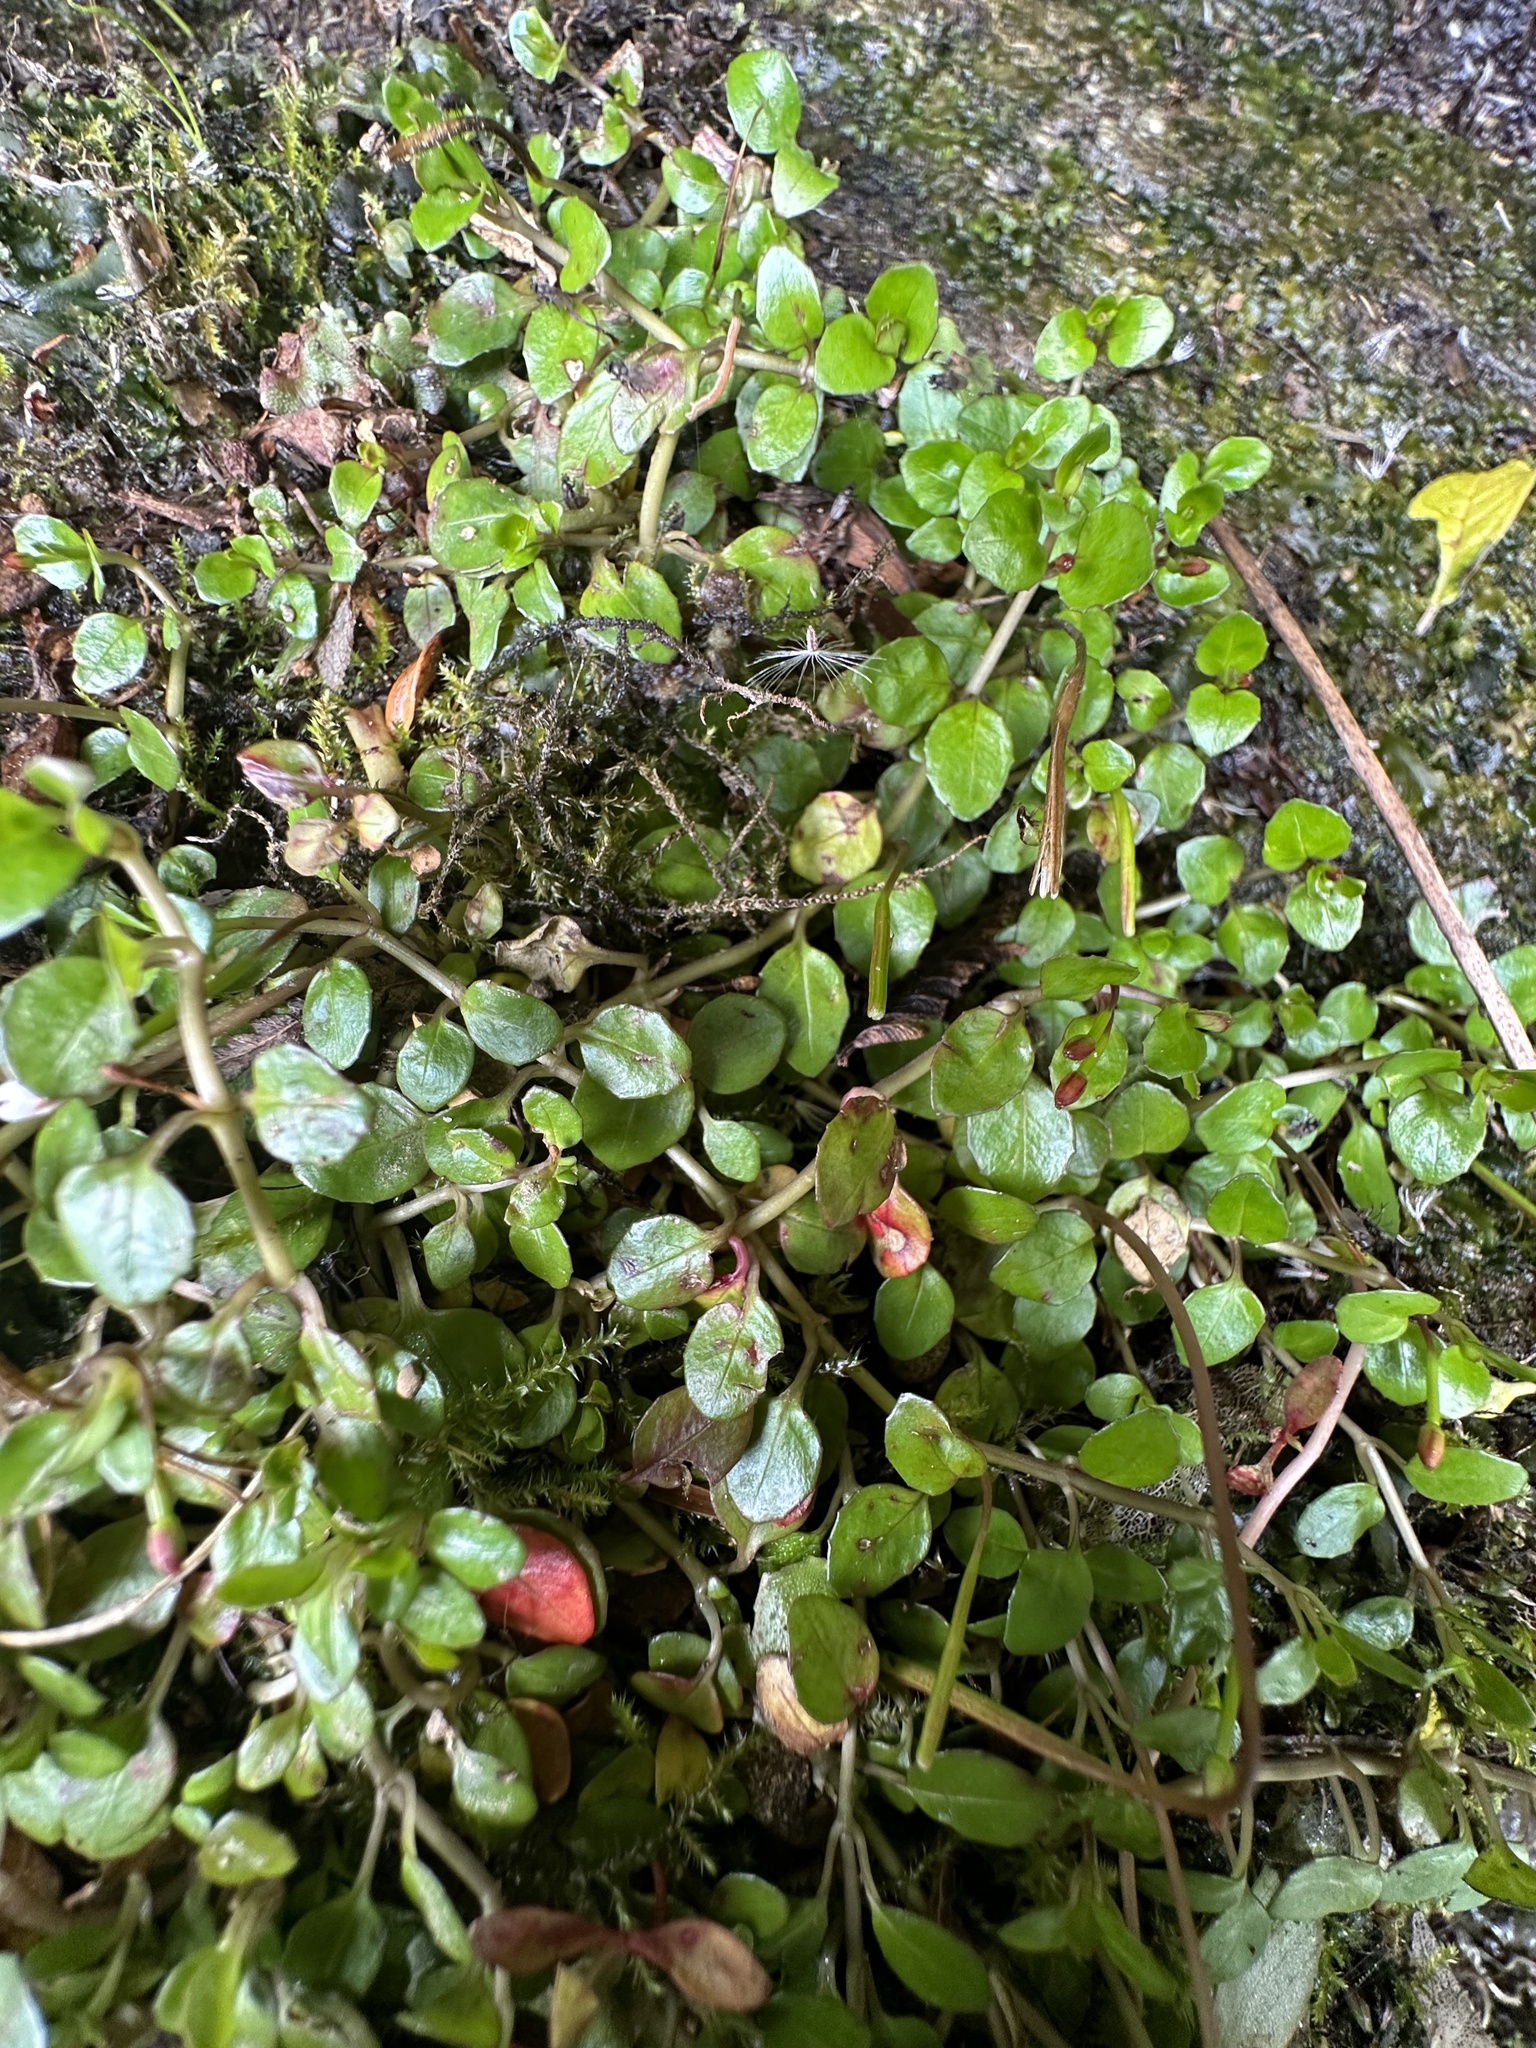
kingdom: Plantae
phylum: Tracheophyta
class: Magnoliopsida
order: Myrtales
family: Onagraceae
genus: Epilobium
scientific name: Epilobium brunnescens
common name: New zealand willowherb
